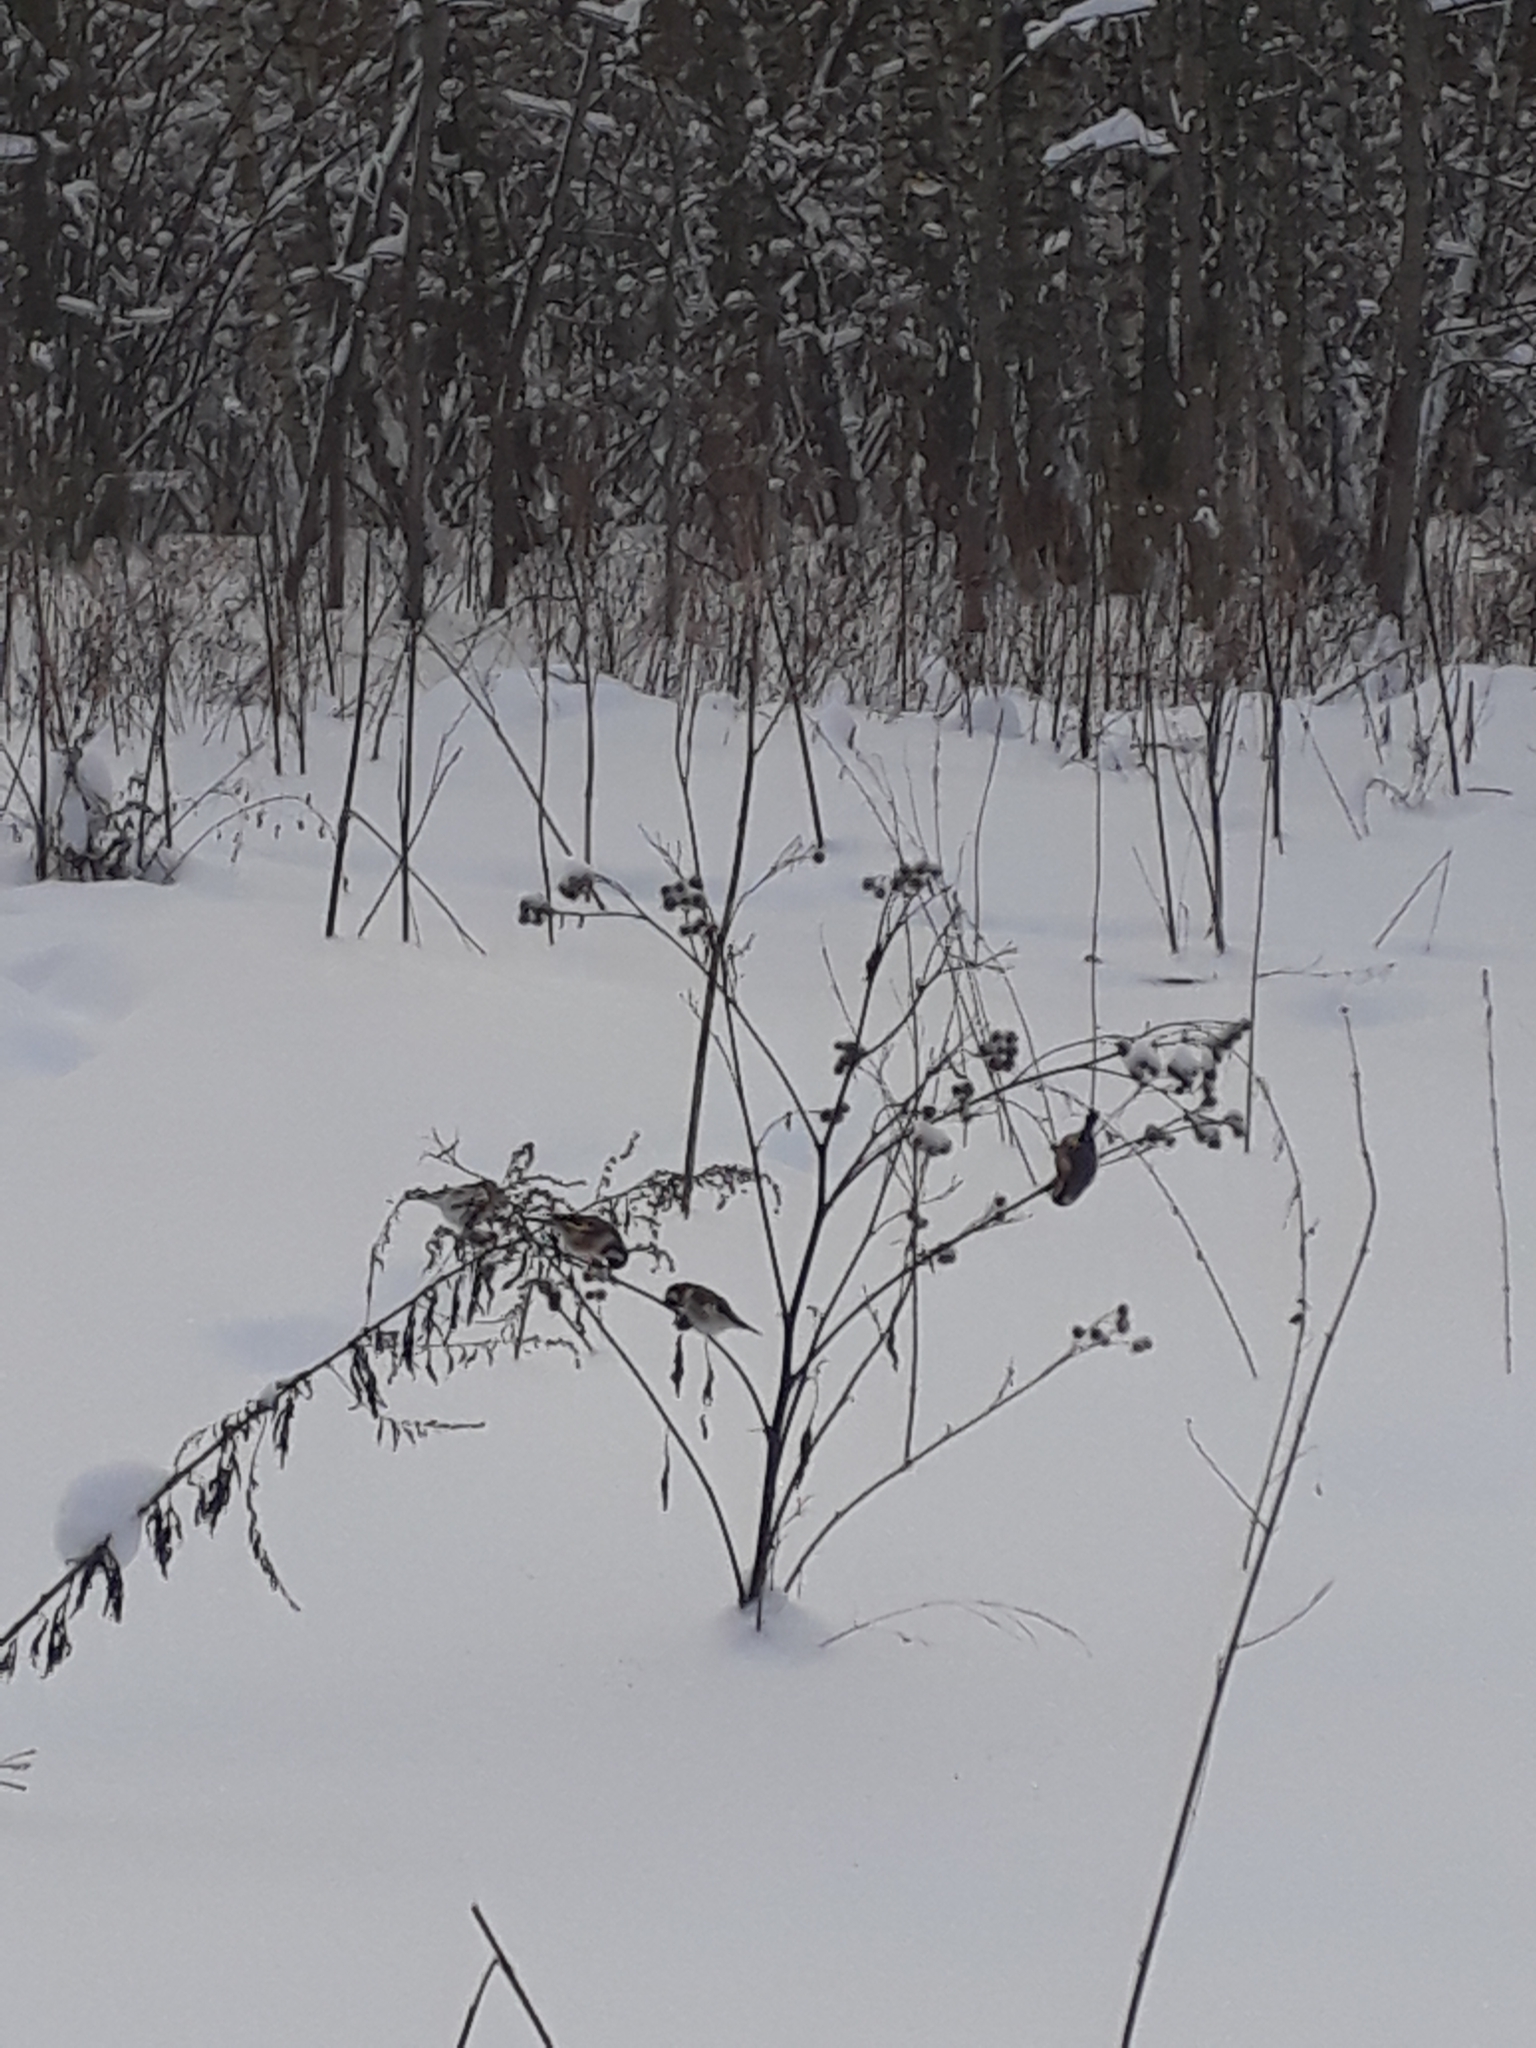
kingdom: Animalia
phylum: Chordata
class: Aves
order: Passeriformes
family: Fringillidae
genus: Carduelis
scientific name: Carduelis carduelis
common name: European goldfinch
